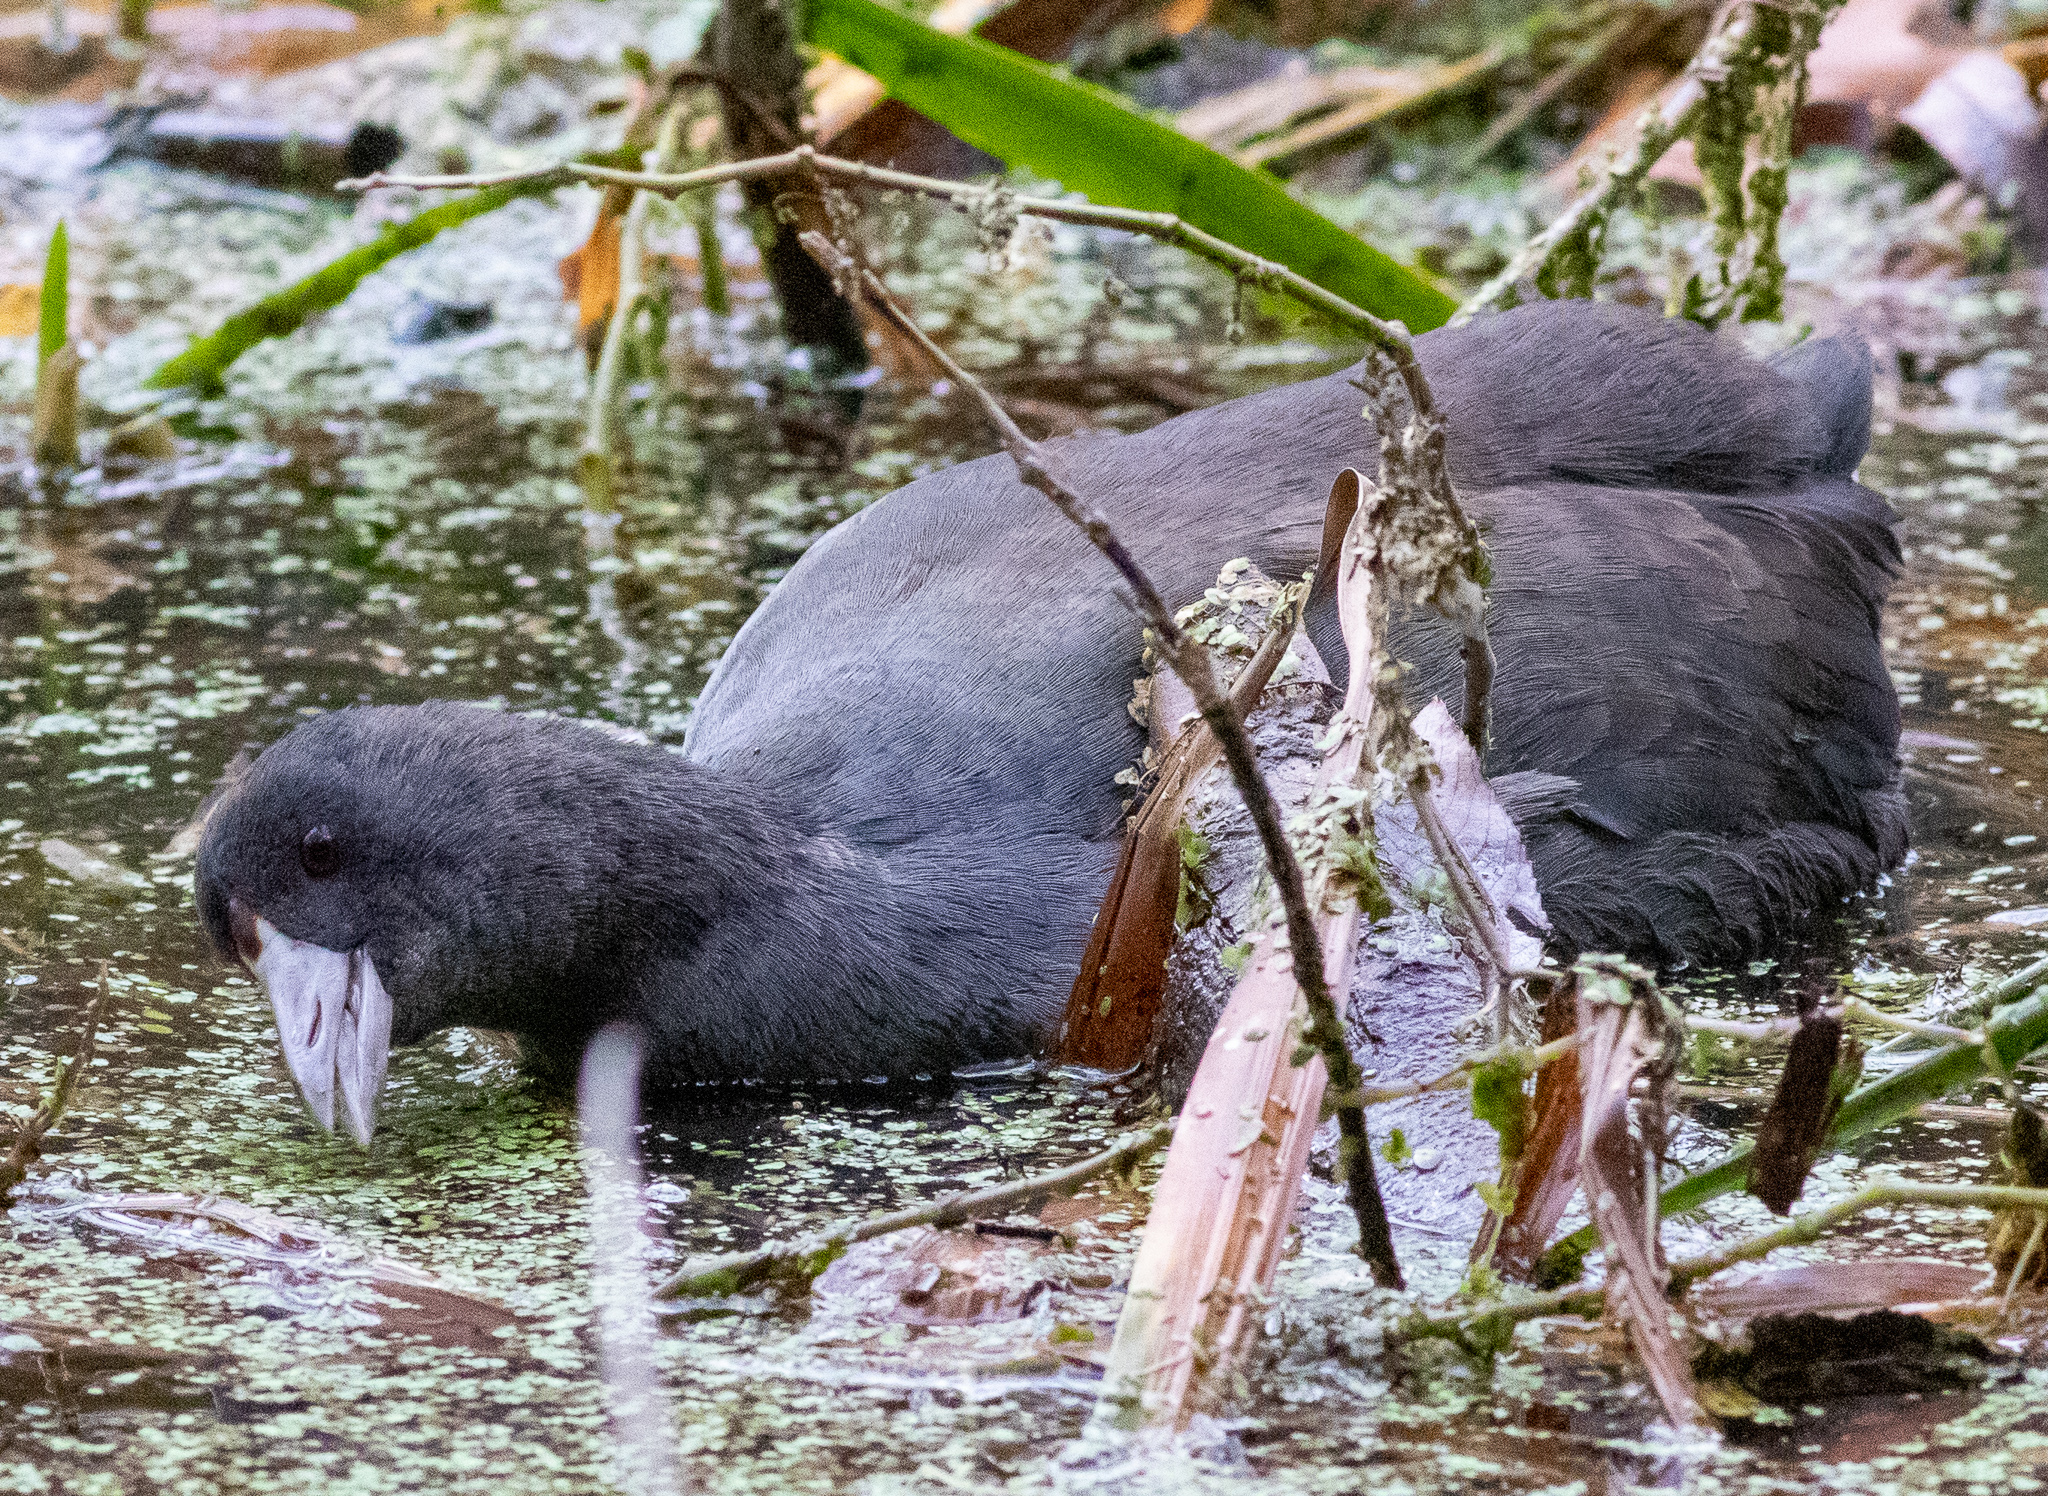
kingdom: Animalia
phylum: Chordata
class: Aves
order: Gruiformes
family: Rallidae
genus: Fulica
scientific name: Fulica americana
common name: American coot
